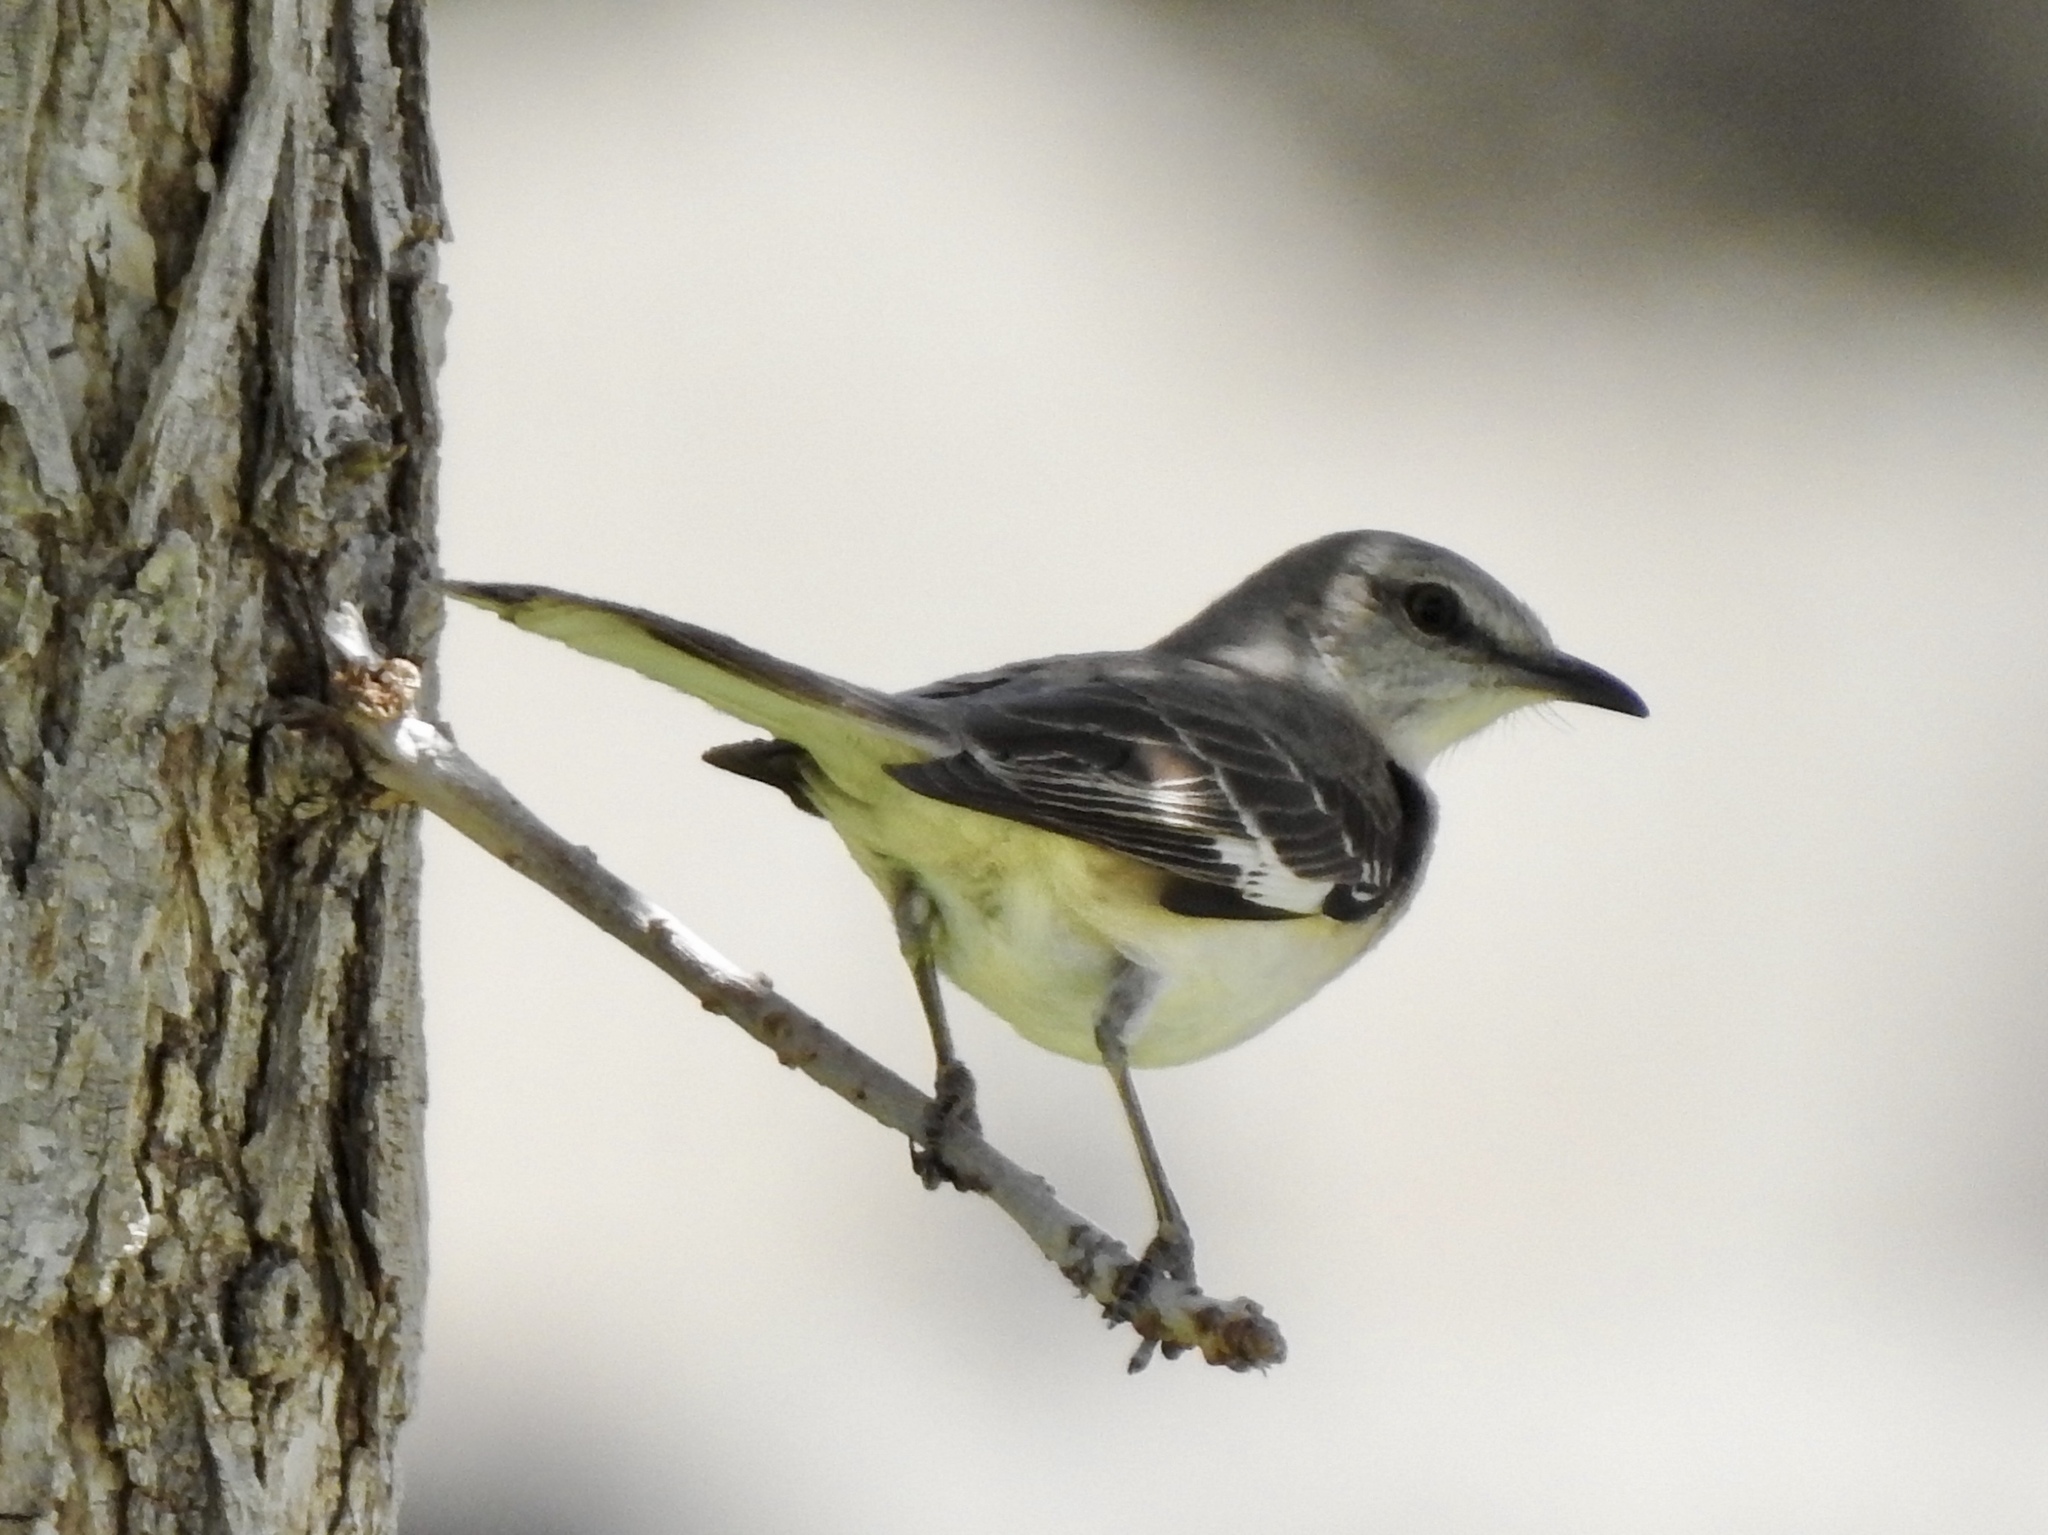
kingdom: Animalia
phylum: Chordata
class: Aves
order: Passeriformes
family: Mimidae
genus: Mimus
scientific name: Mimus polyglottos
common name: Northern mockingbird
